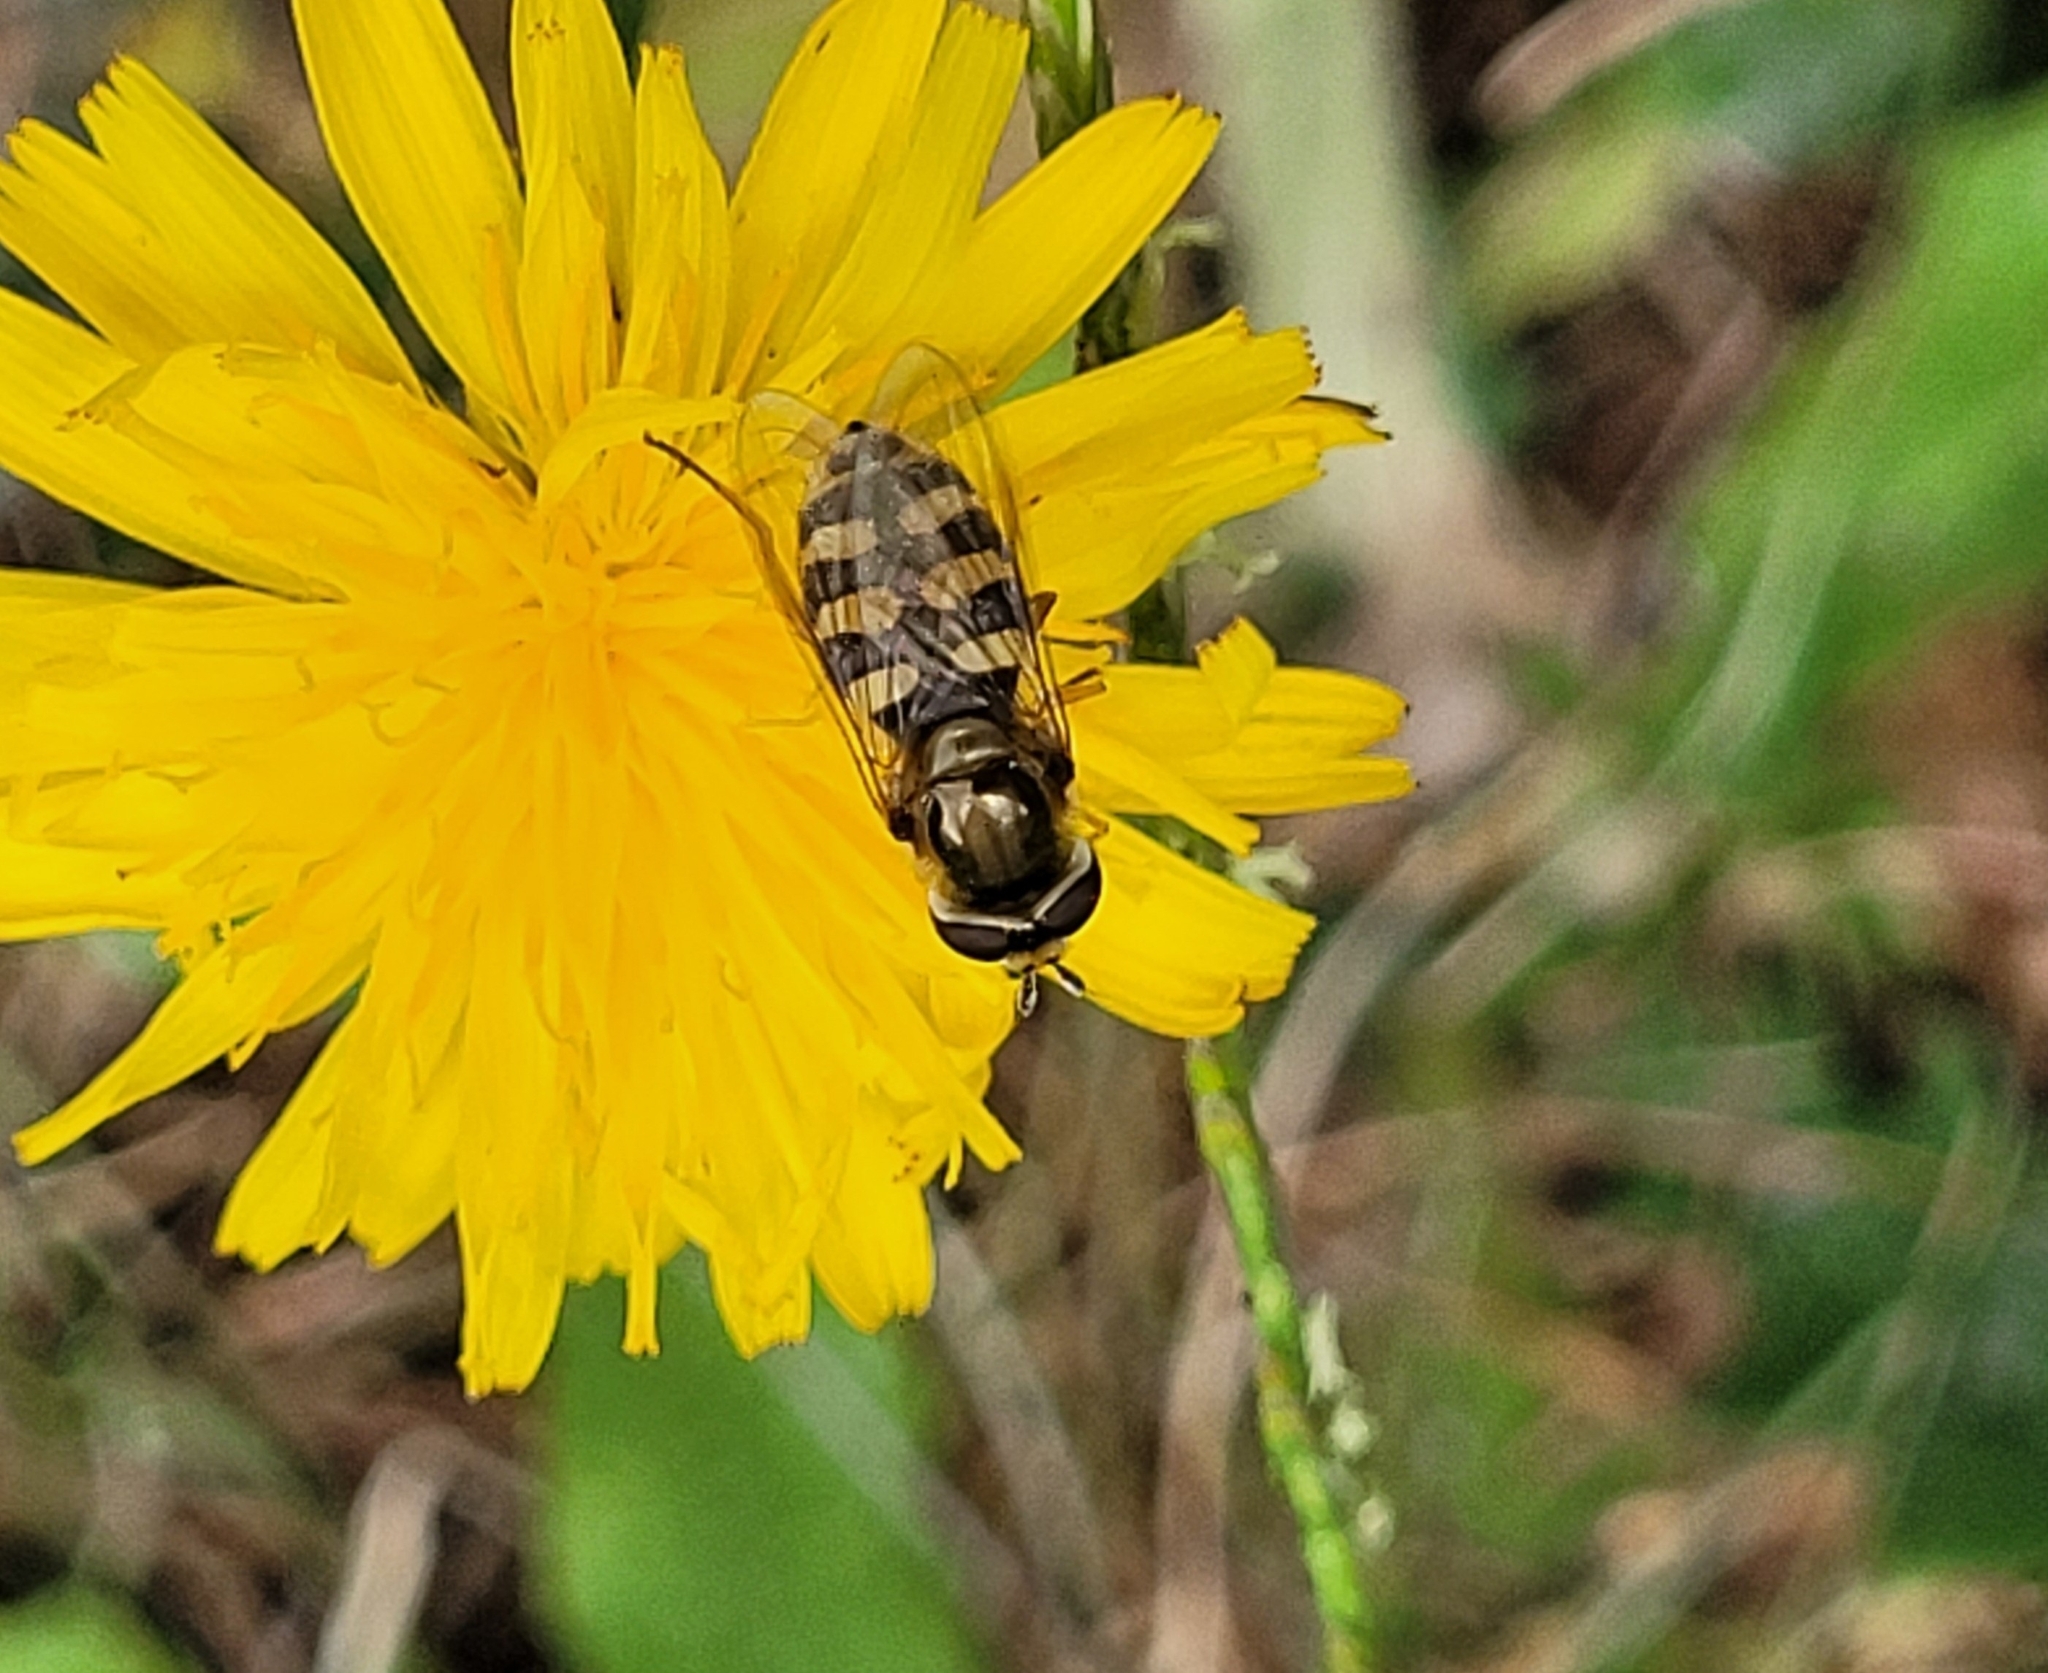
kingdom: Animalia
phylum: Arthropoda
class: Insecta
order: Diptera
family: Syrphidae
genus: Eupeodes
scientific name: Eupeodes corollae
